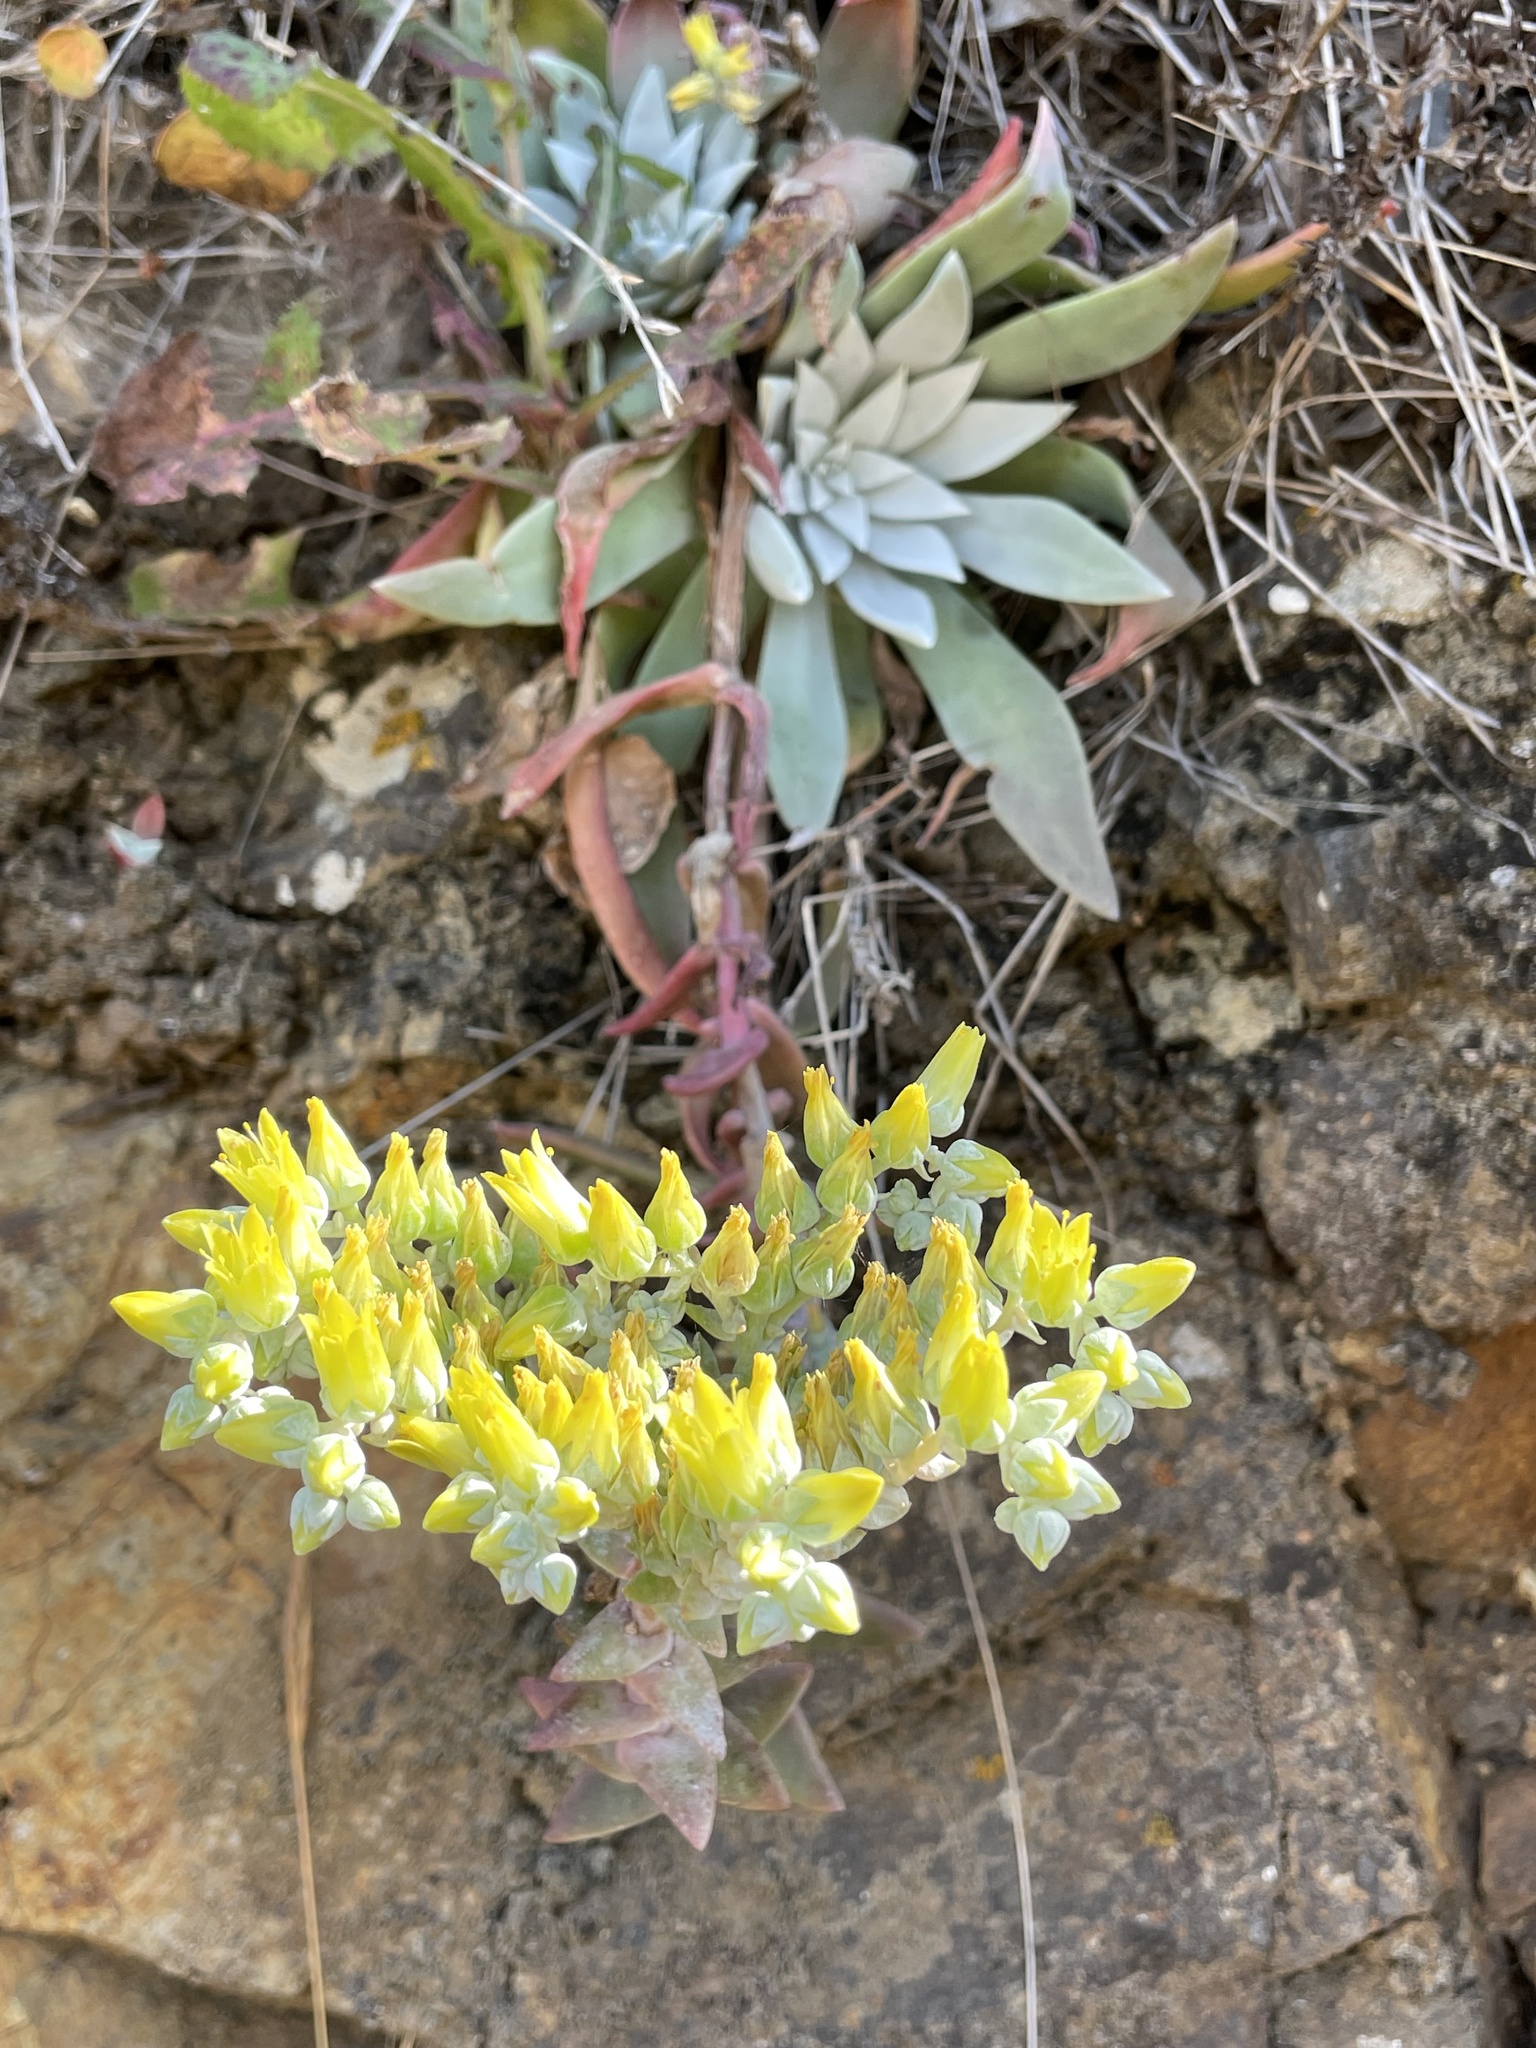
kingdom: Plantae
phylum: Tracheophyta
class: Magnoliopsida
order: Saxifragales
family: Crassulaceae
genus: Dudleya
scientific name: Dudleya greenei
